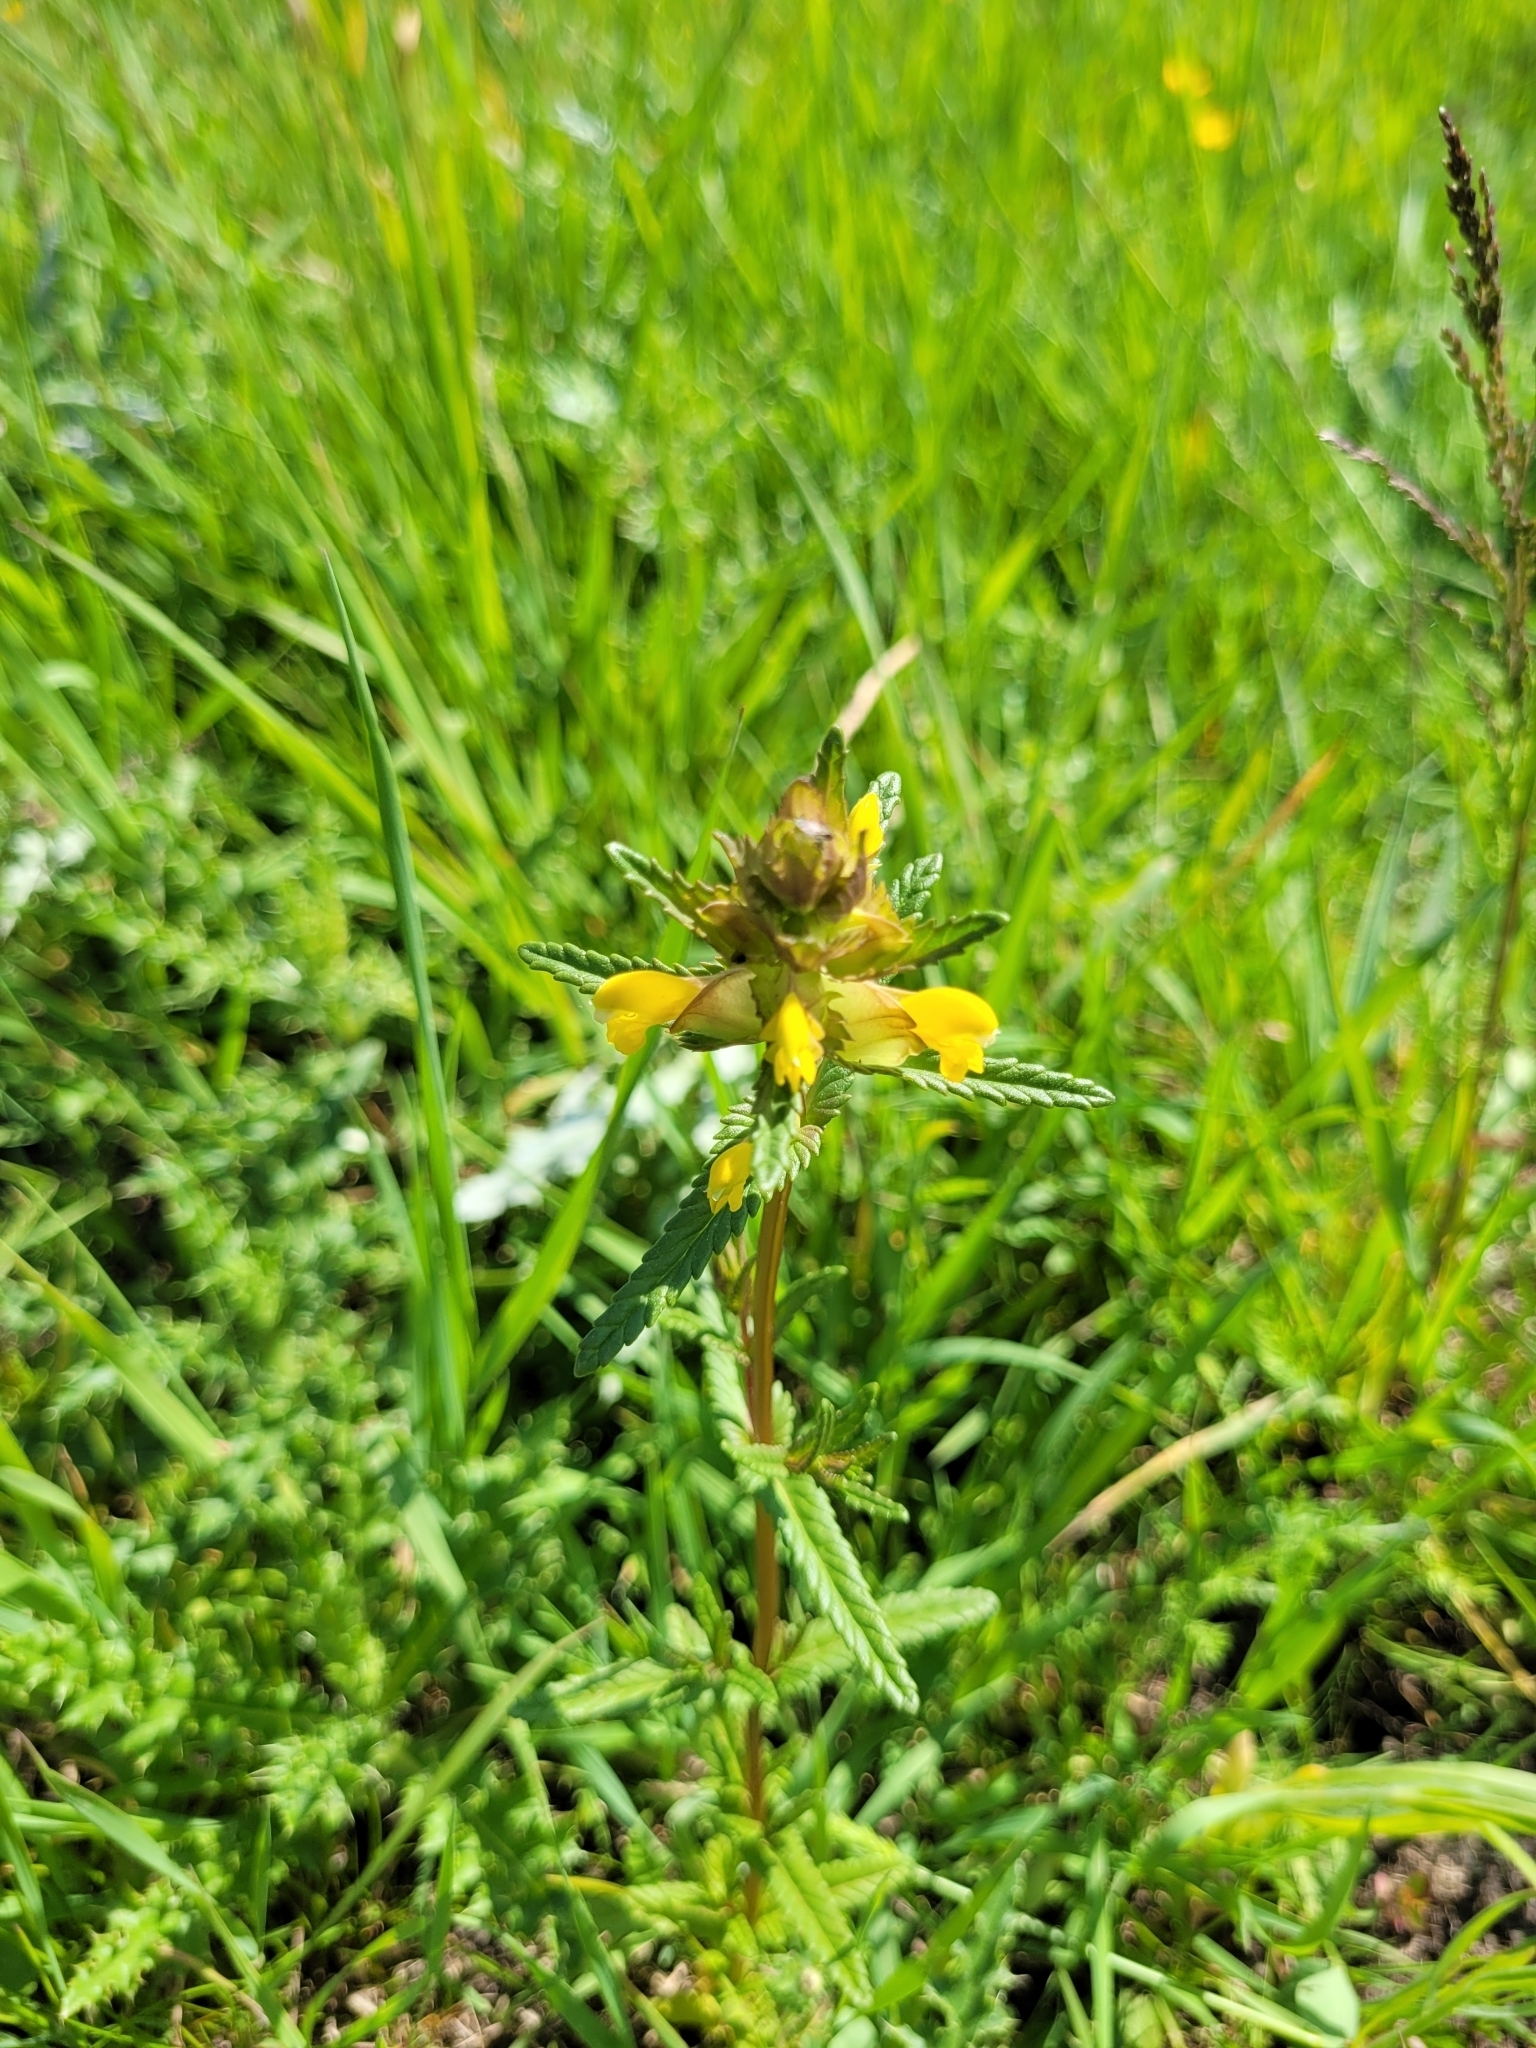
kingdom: Plantae
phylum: Tracheophyta
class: Magnoliopsida
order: Lamiales
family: Orobanchaceae
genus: Rhinanthus
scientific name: Rhinanthus minor
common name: Yellow-rattle
